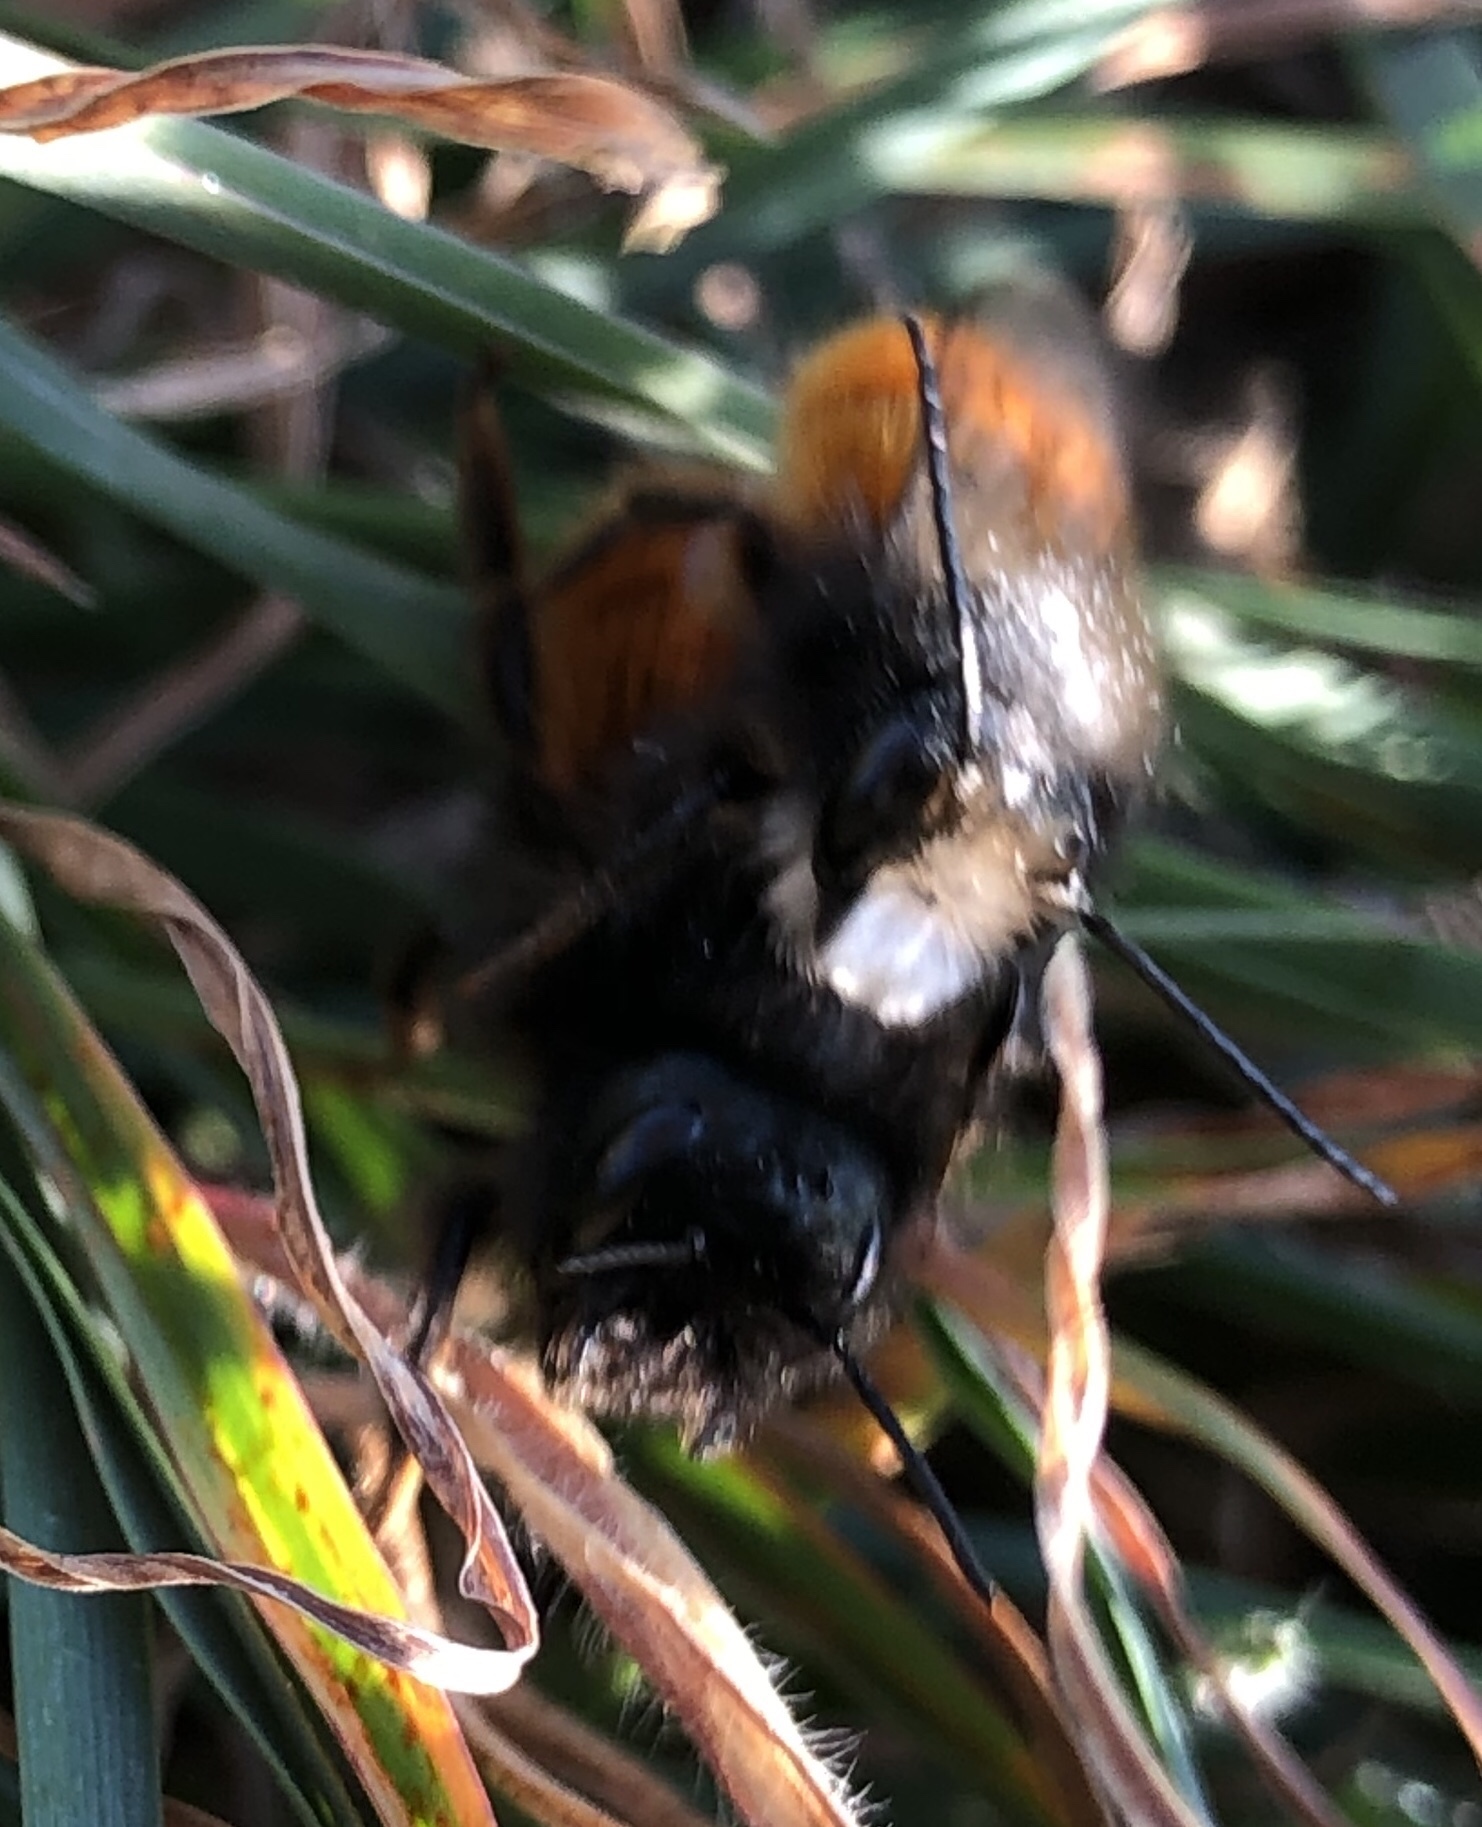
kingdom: Animalia
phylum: Arthropoda
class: Insecta
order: Hymenoptera
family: Megachilidae
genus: Osmia
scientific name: Osmia cornuta
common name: Mason bee
